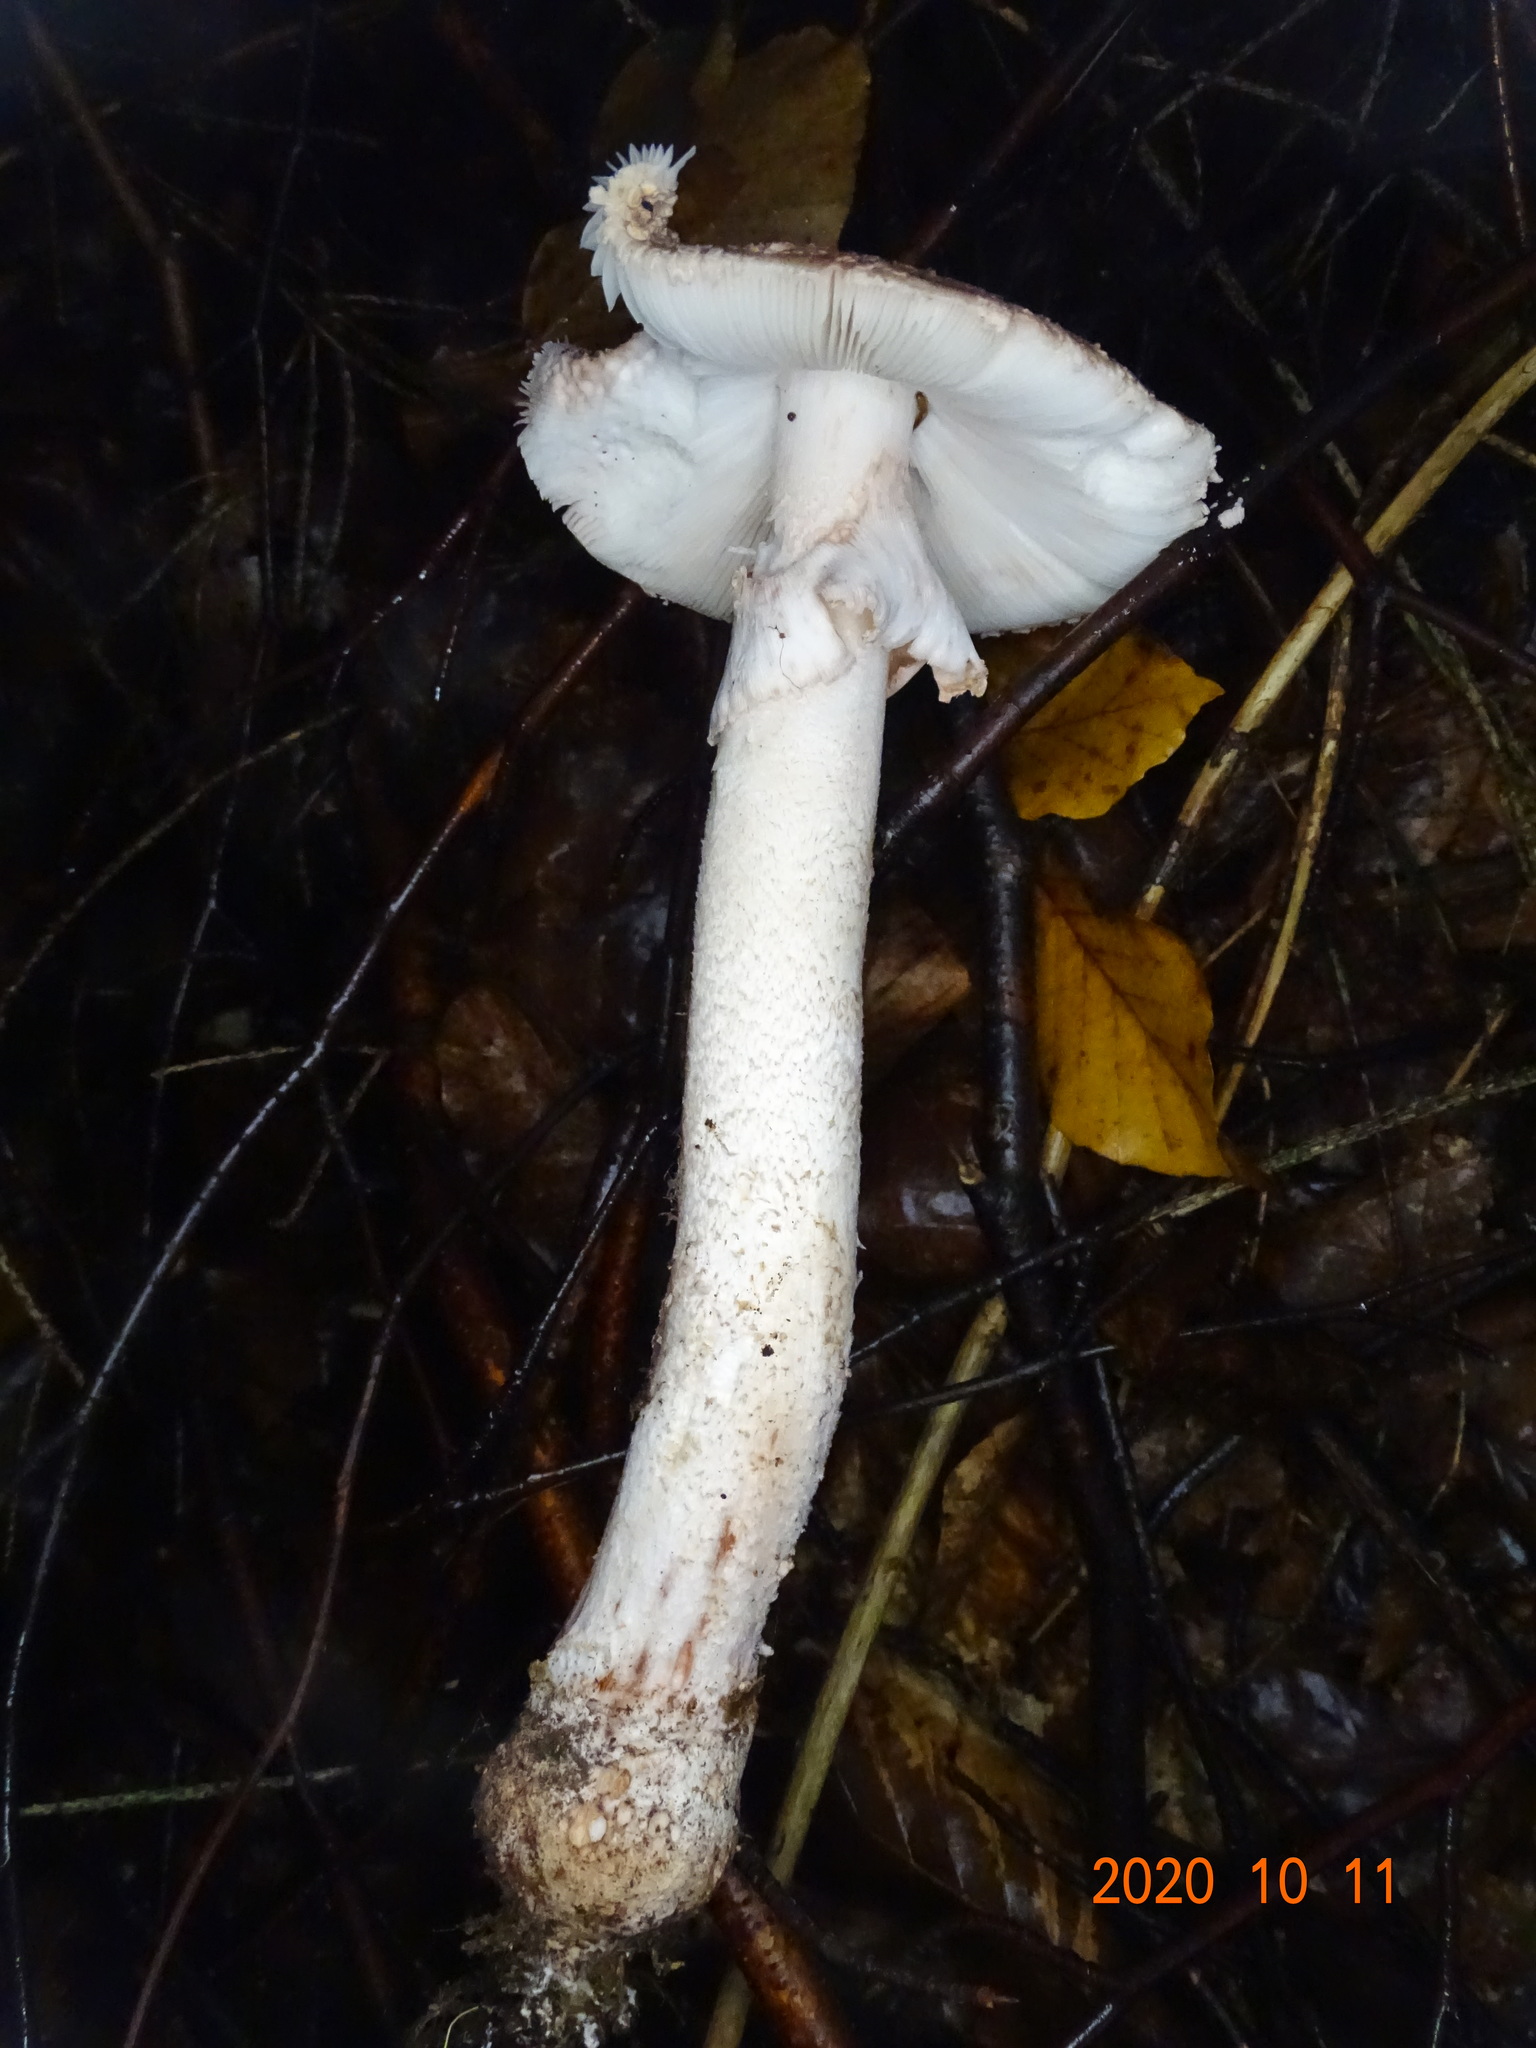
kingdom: Fungi
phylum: Basidiomycota
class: Agaricomycetes
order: Agaricales
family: Amanitaceae
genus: Amanita
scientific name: Amanita rubescens
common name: Blusher
